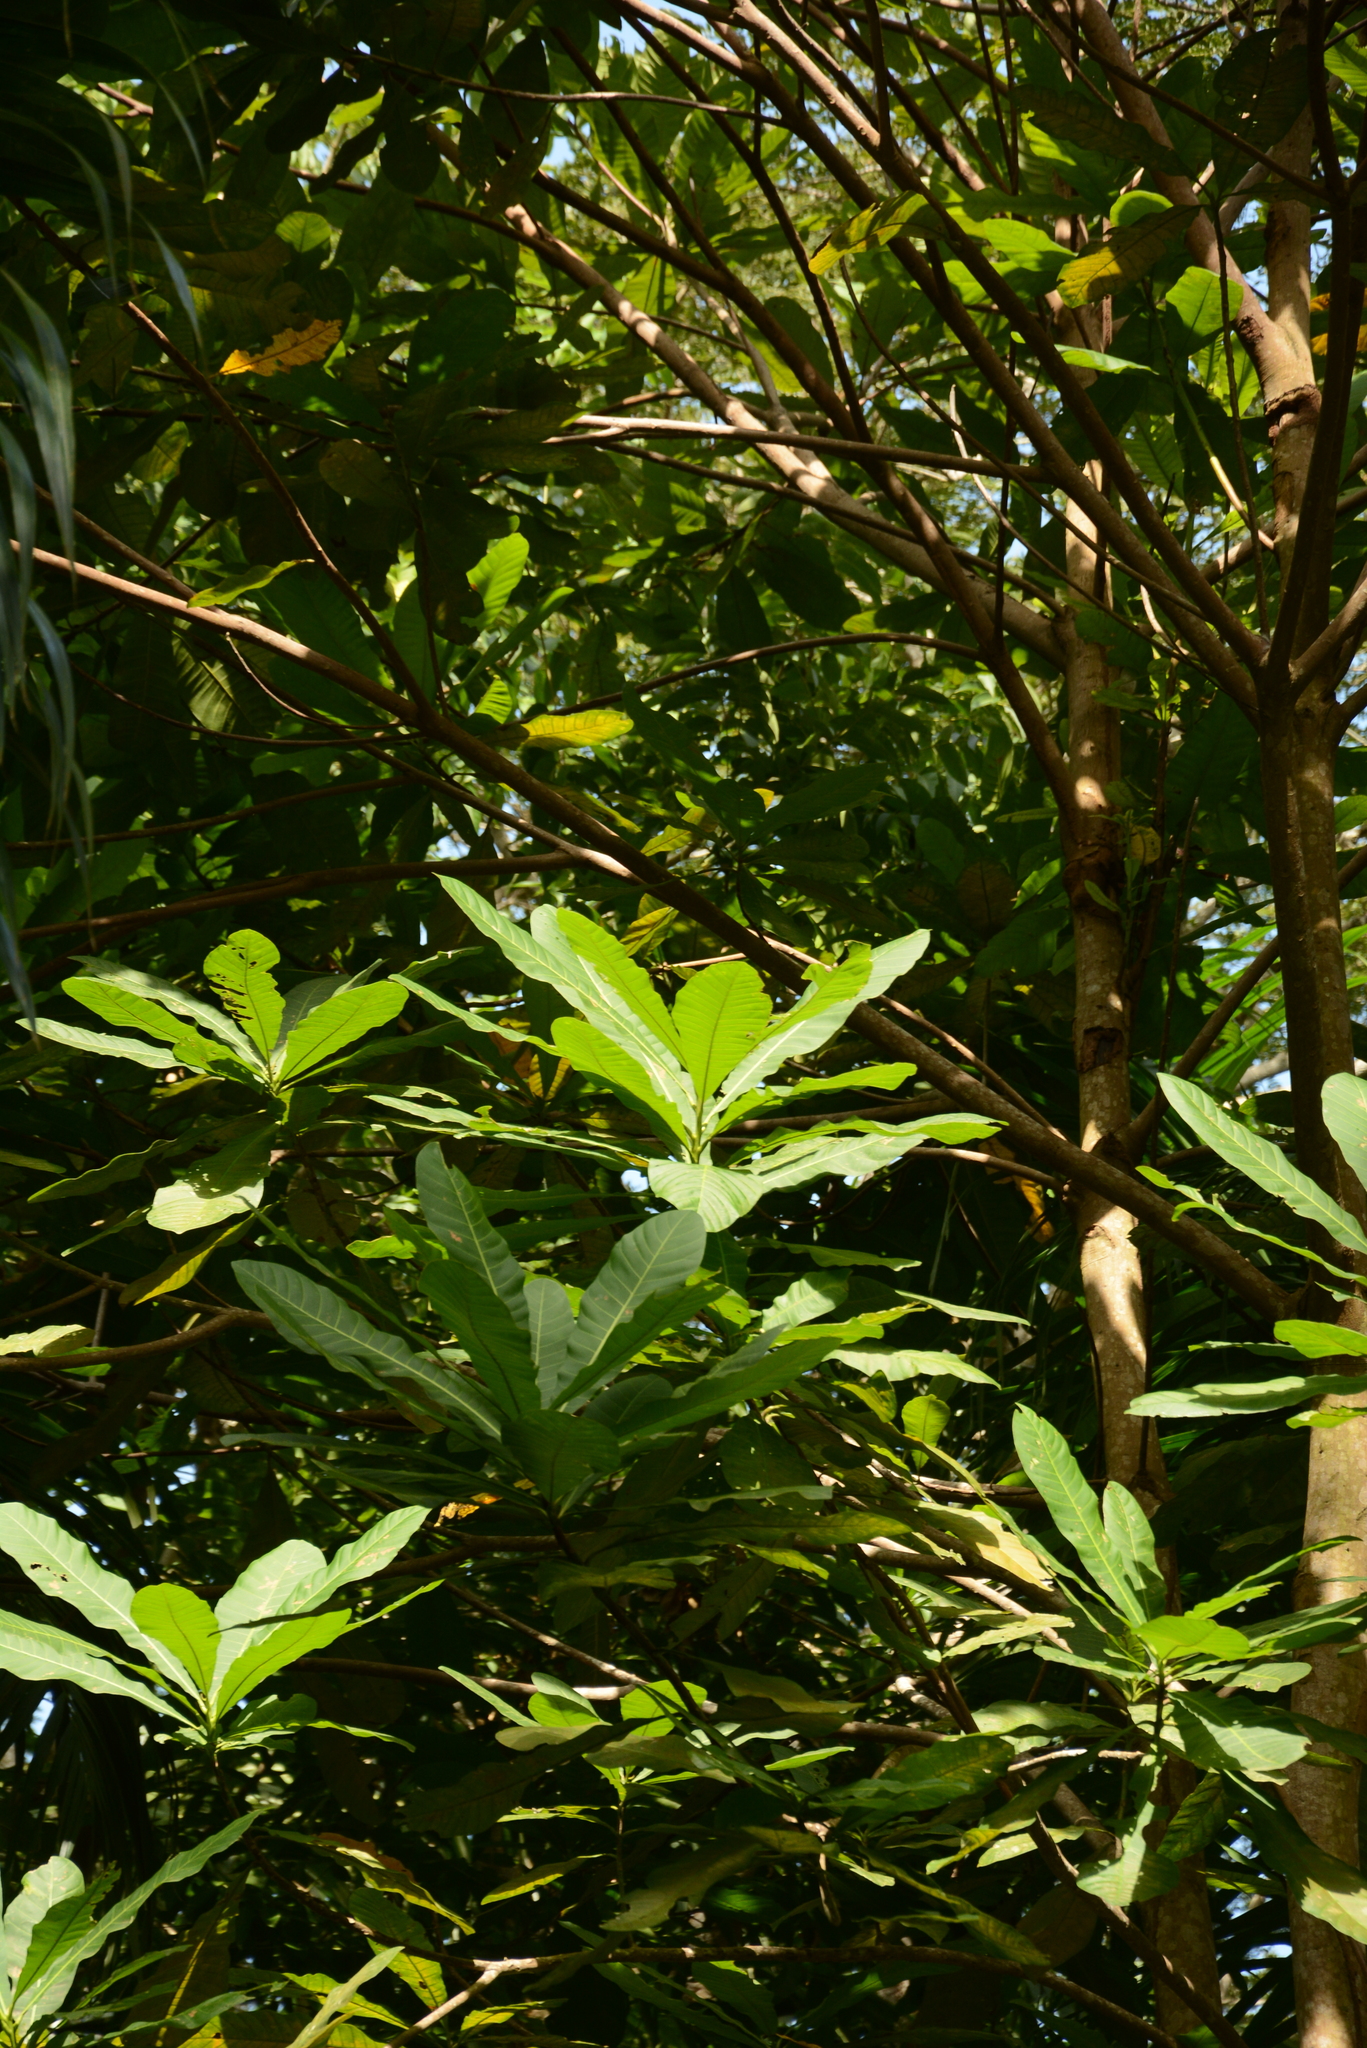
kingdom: Plantae
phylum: Tracheophyta
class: Magnoliopsida
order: Sapindales
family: Anacardiaceae
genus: Anacardium
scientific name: Anacardium excelsum
